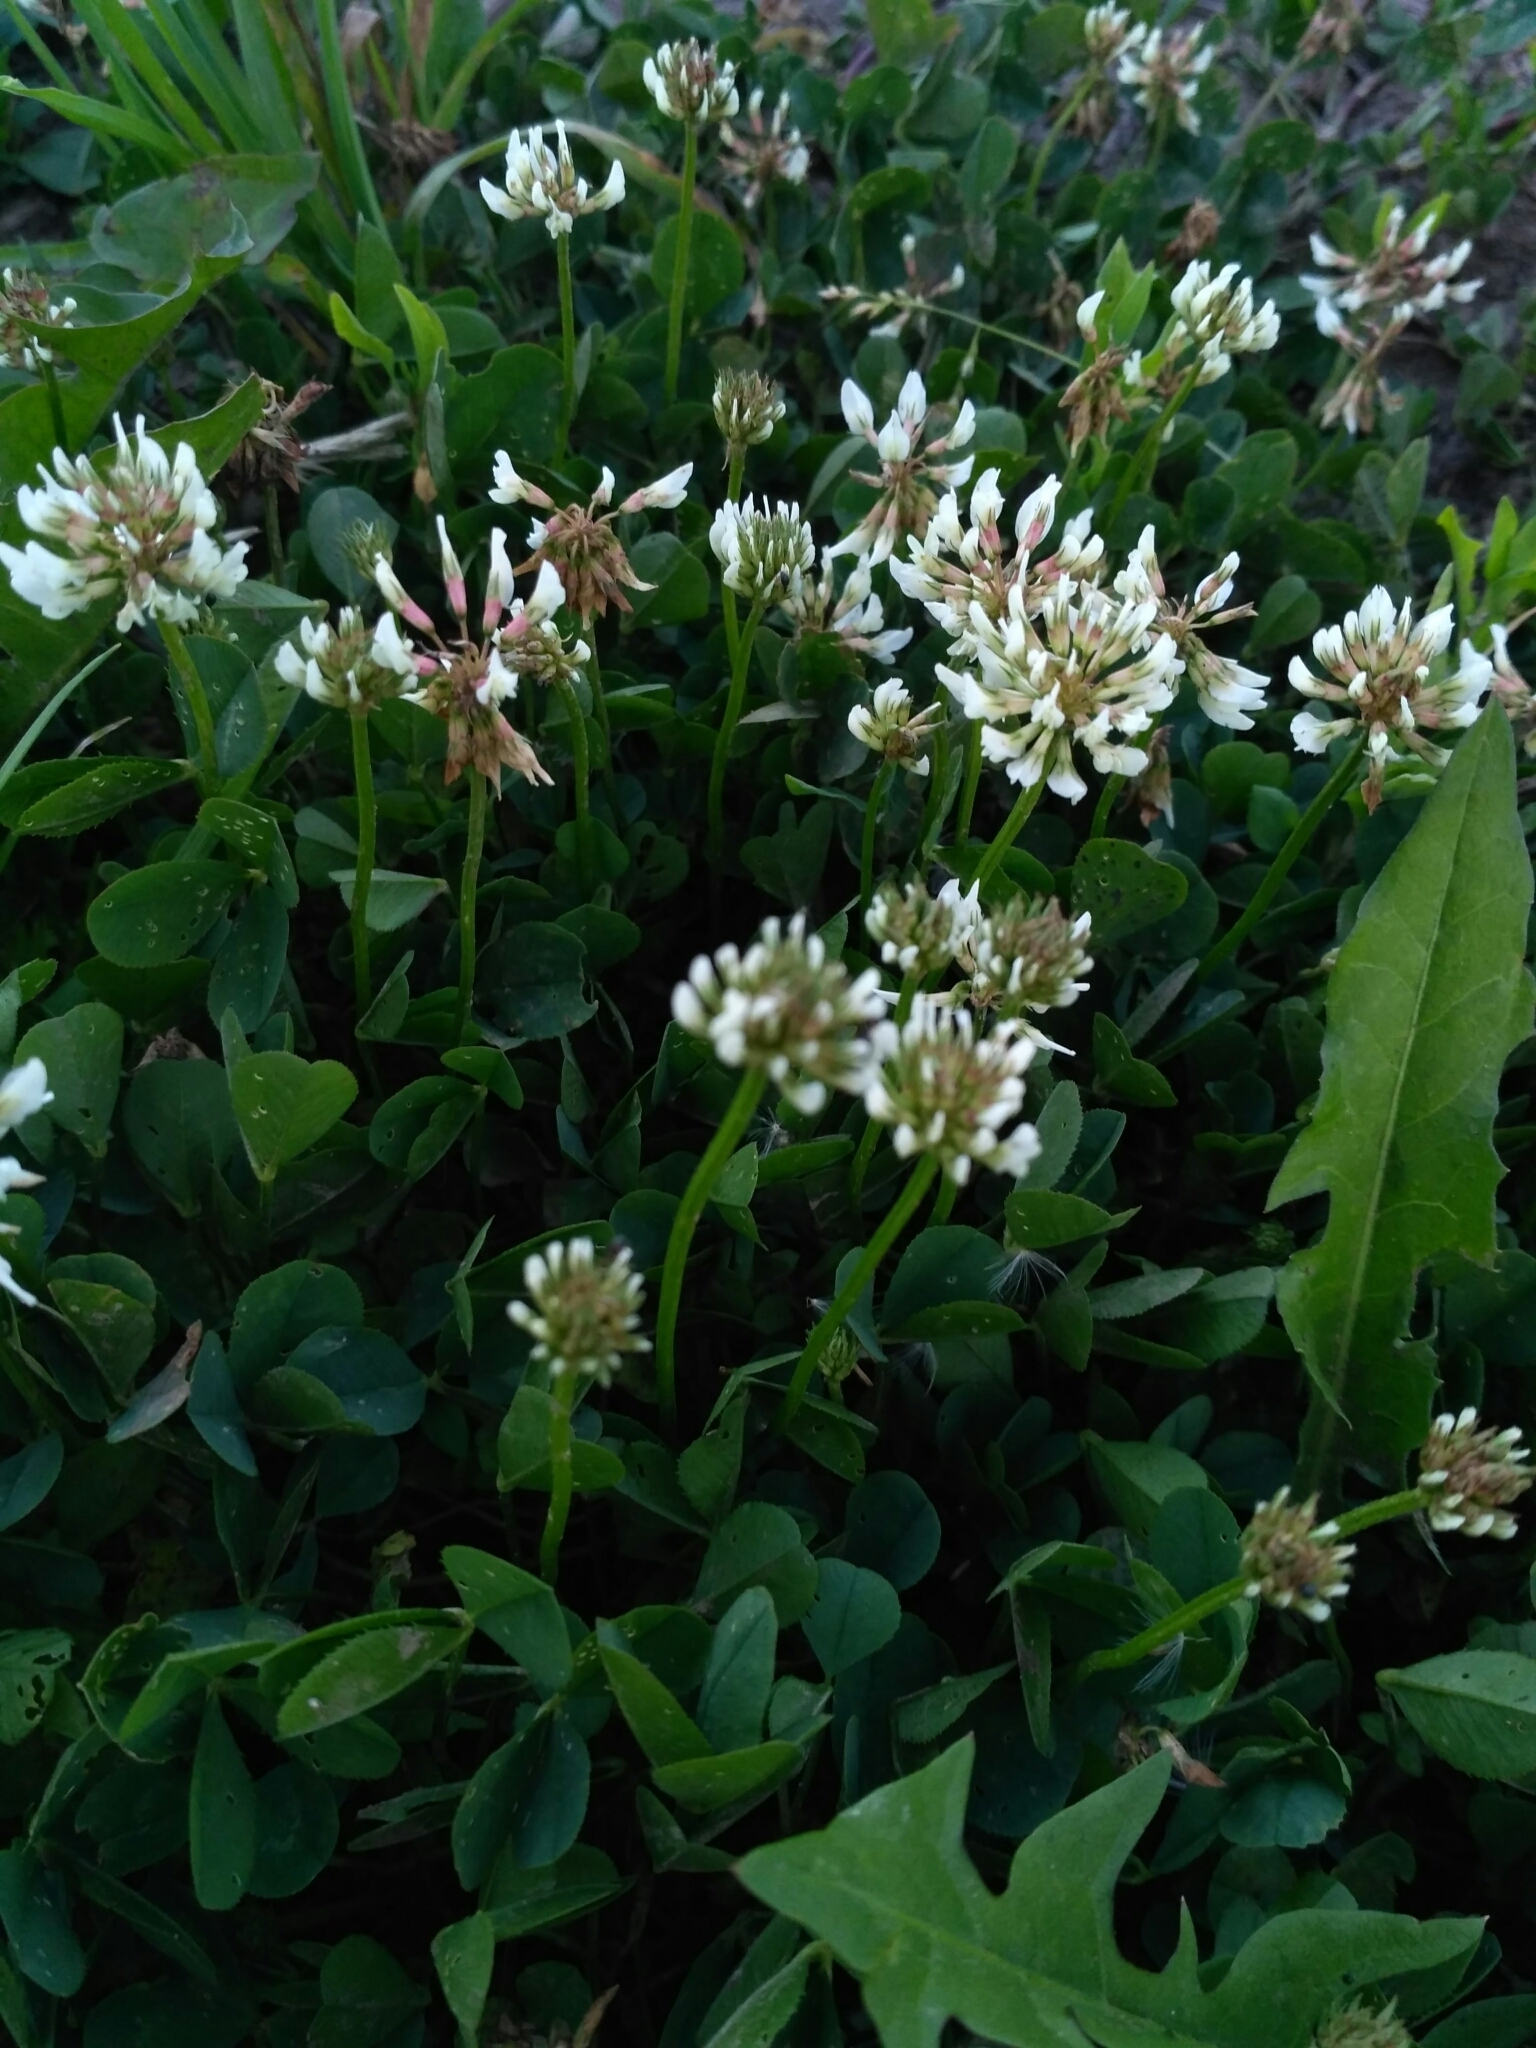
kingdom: Plantae
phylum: Tracheophyta
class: Magnoliopsida
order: Fabales
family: Fabaceae
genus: Trifolium
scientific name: Trifolium repens
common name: White clover
